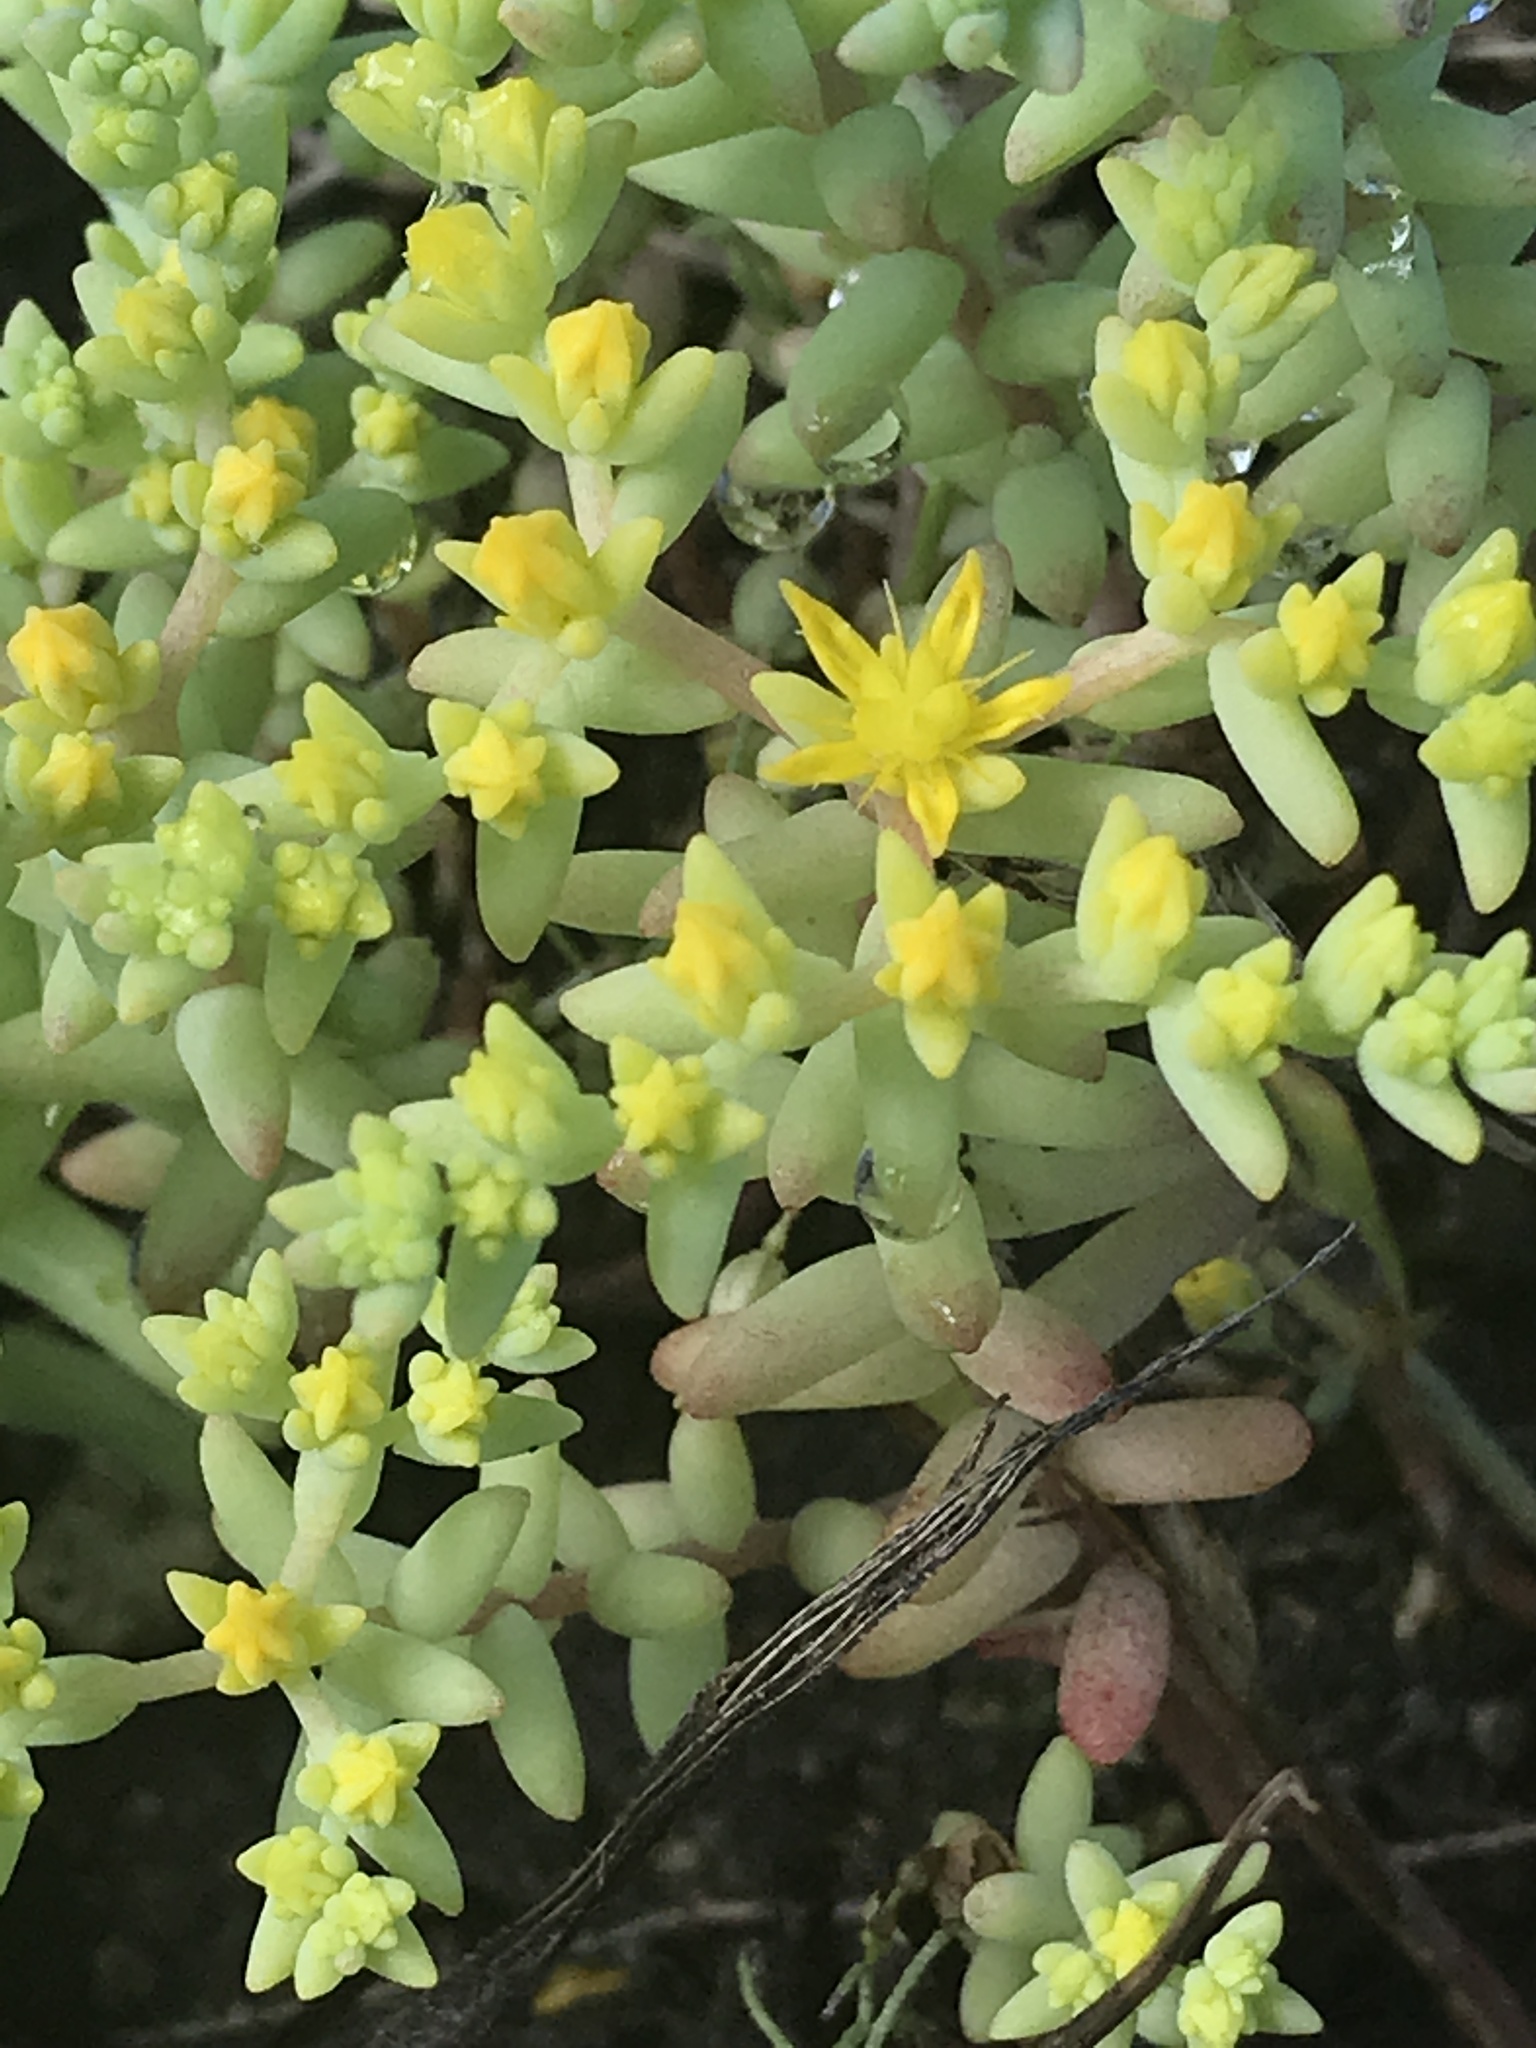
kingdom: Plantae
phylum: Tracheophyta
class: Magnoliopsida
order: Saxifragales
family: Crassulaceae
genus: Sedum
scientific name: Sedum nuttallii
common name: Yellow stonecrop
